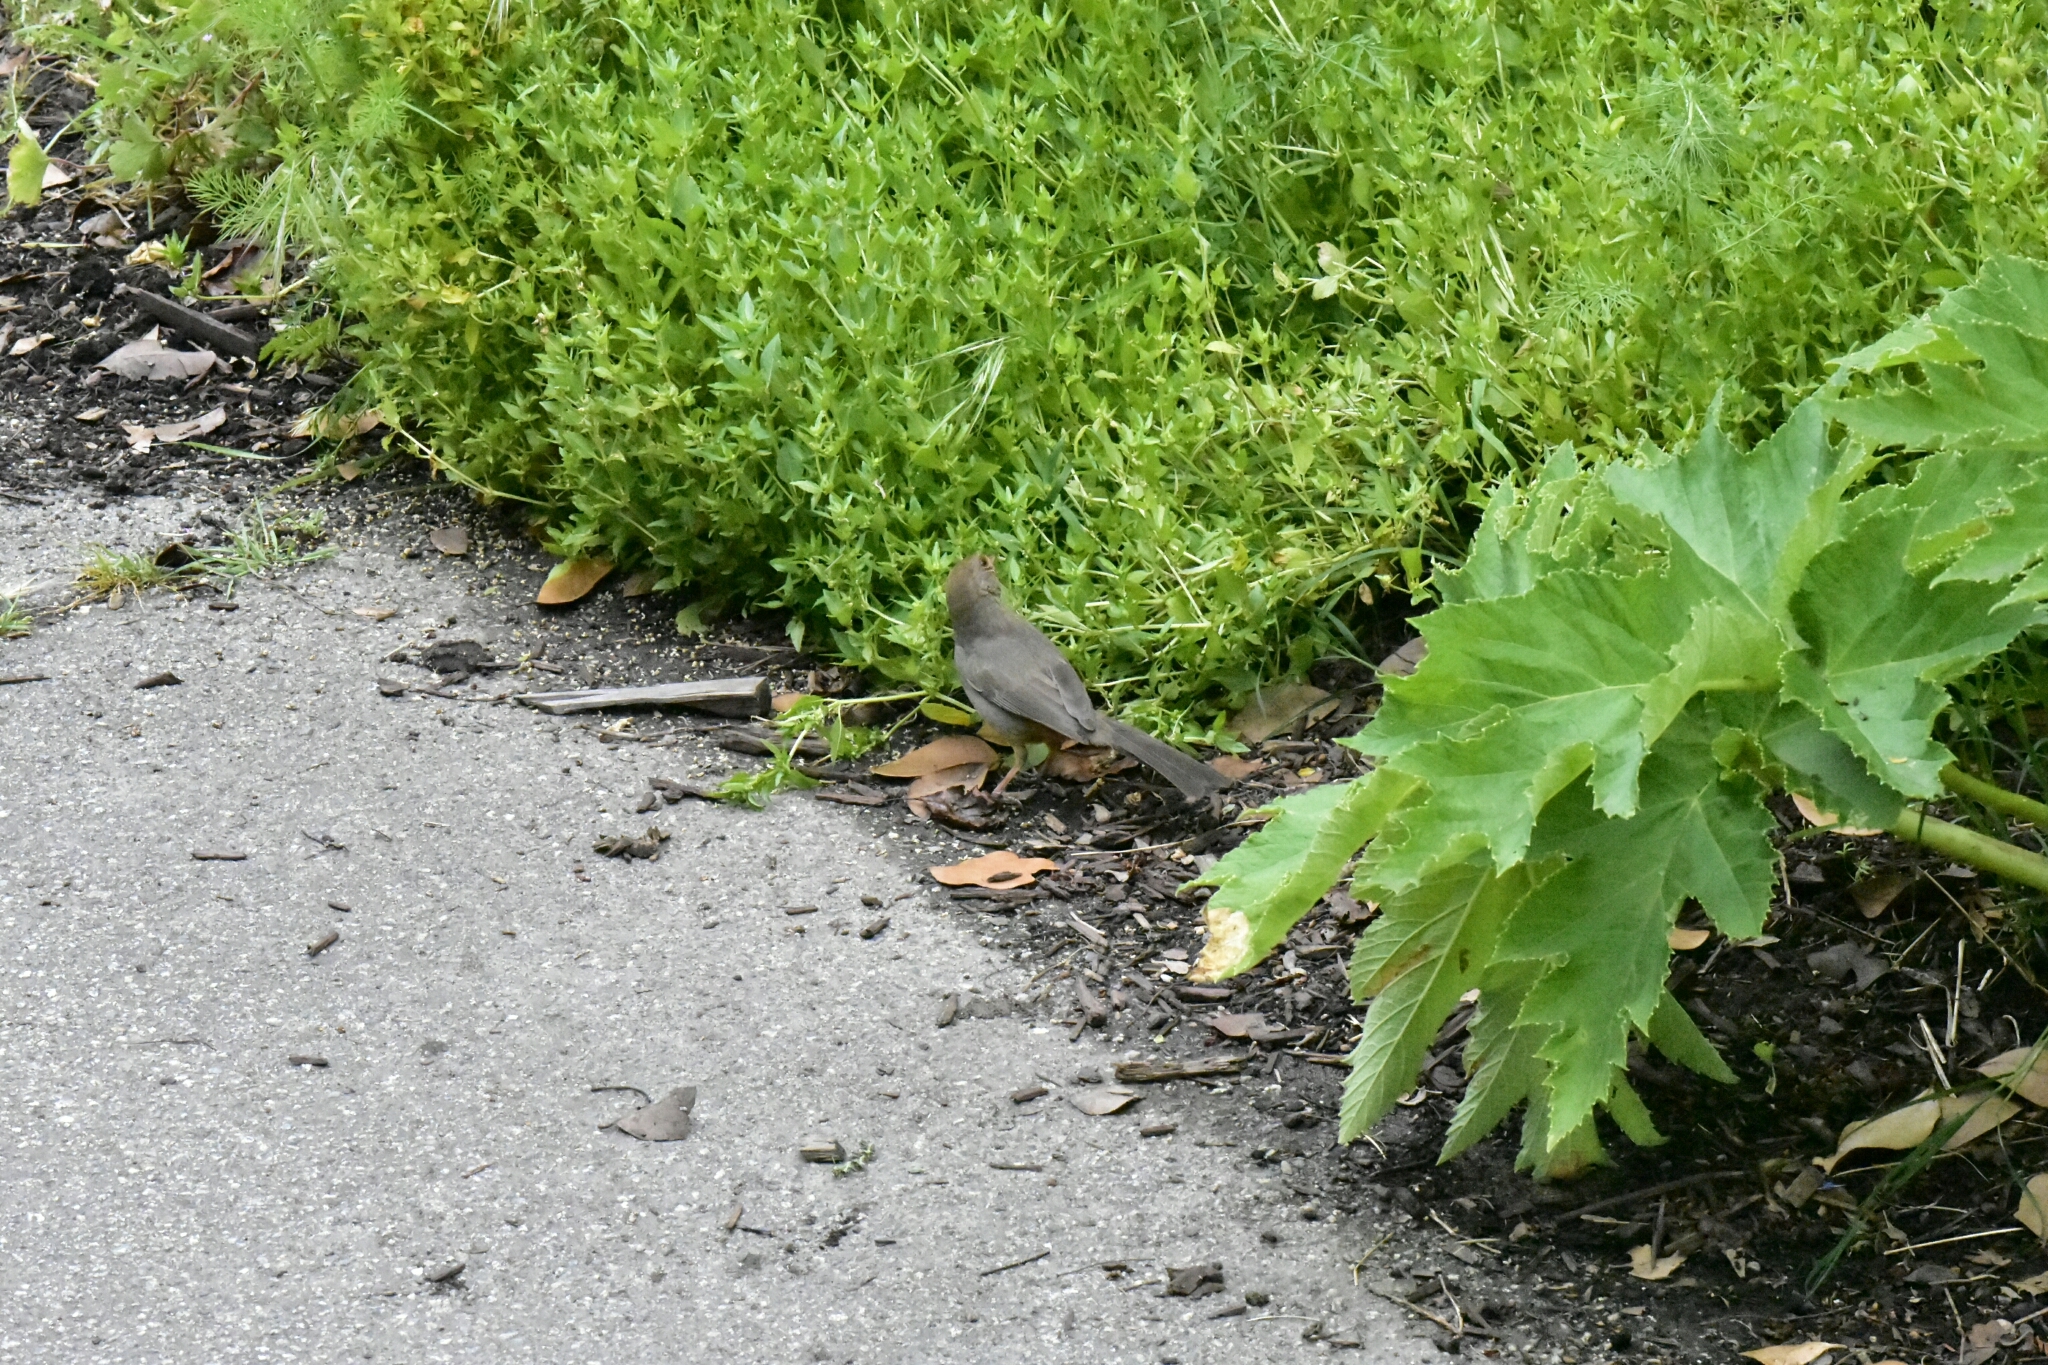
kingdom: Animalia
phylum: Chordata
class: Aves
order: Passeriformes
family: Passerellidae
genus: Melozone
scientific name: Melozone crissalis
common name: California towhee
